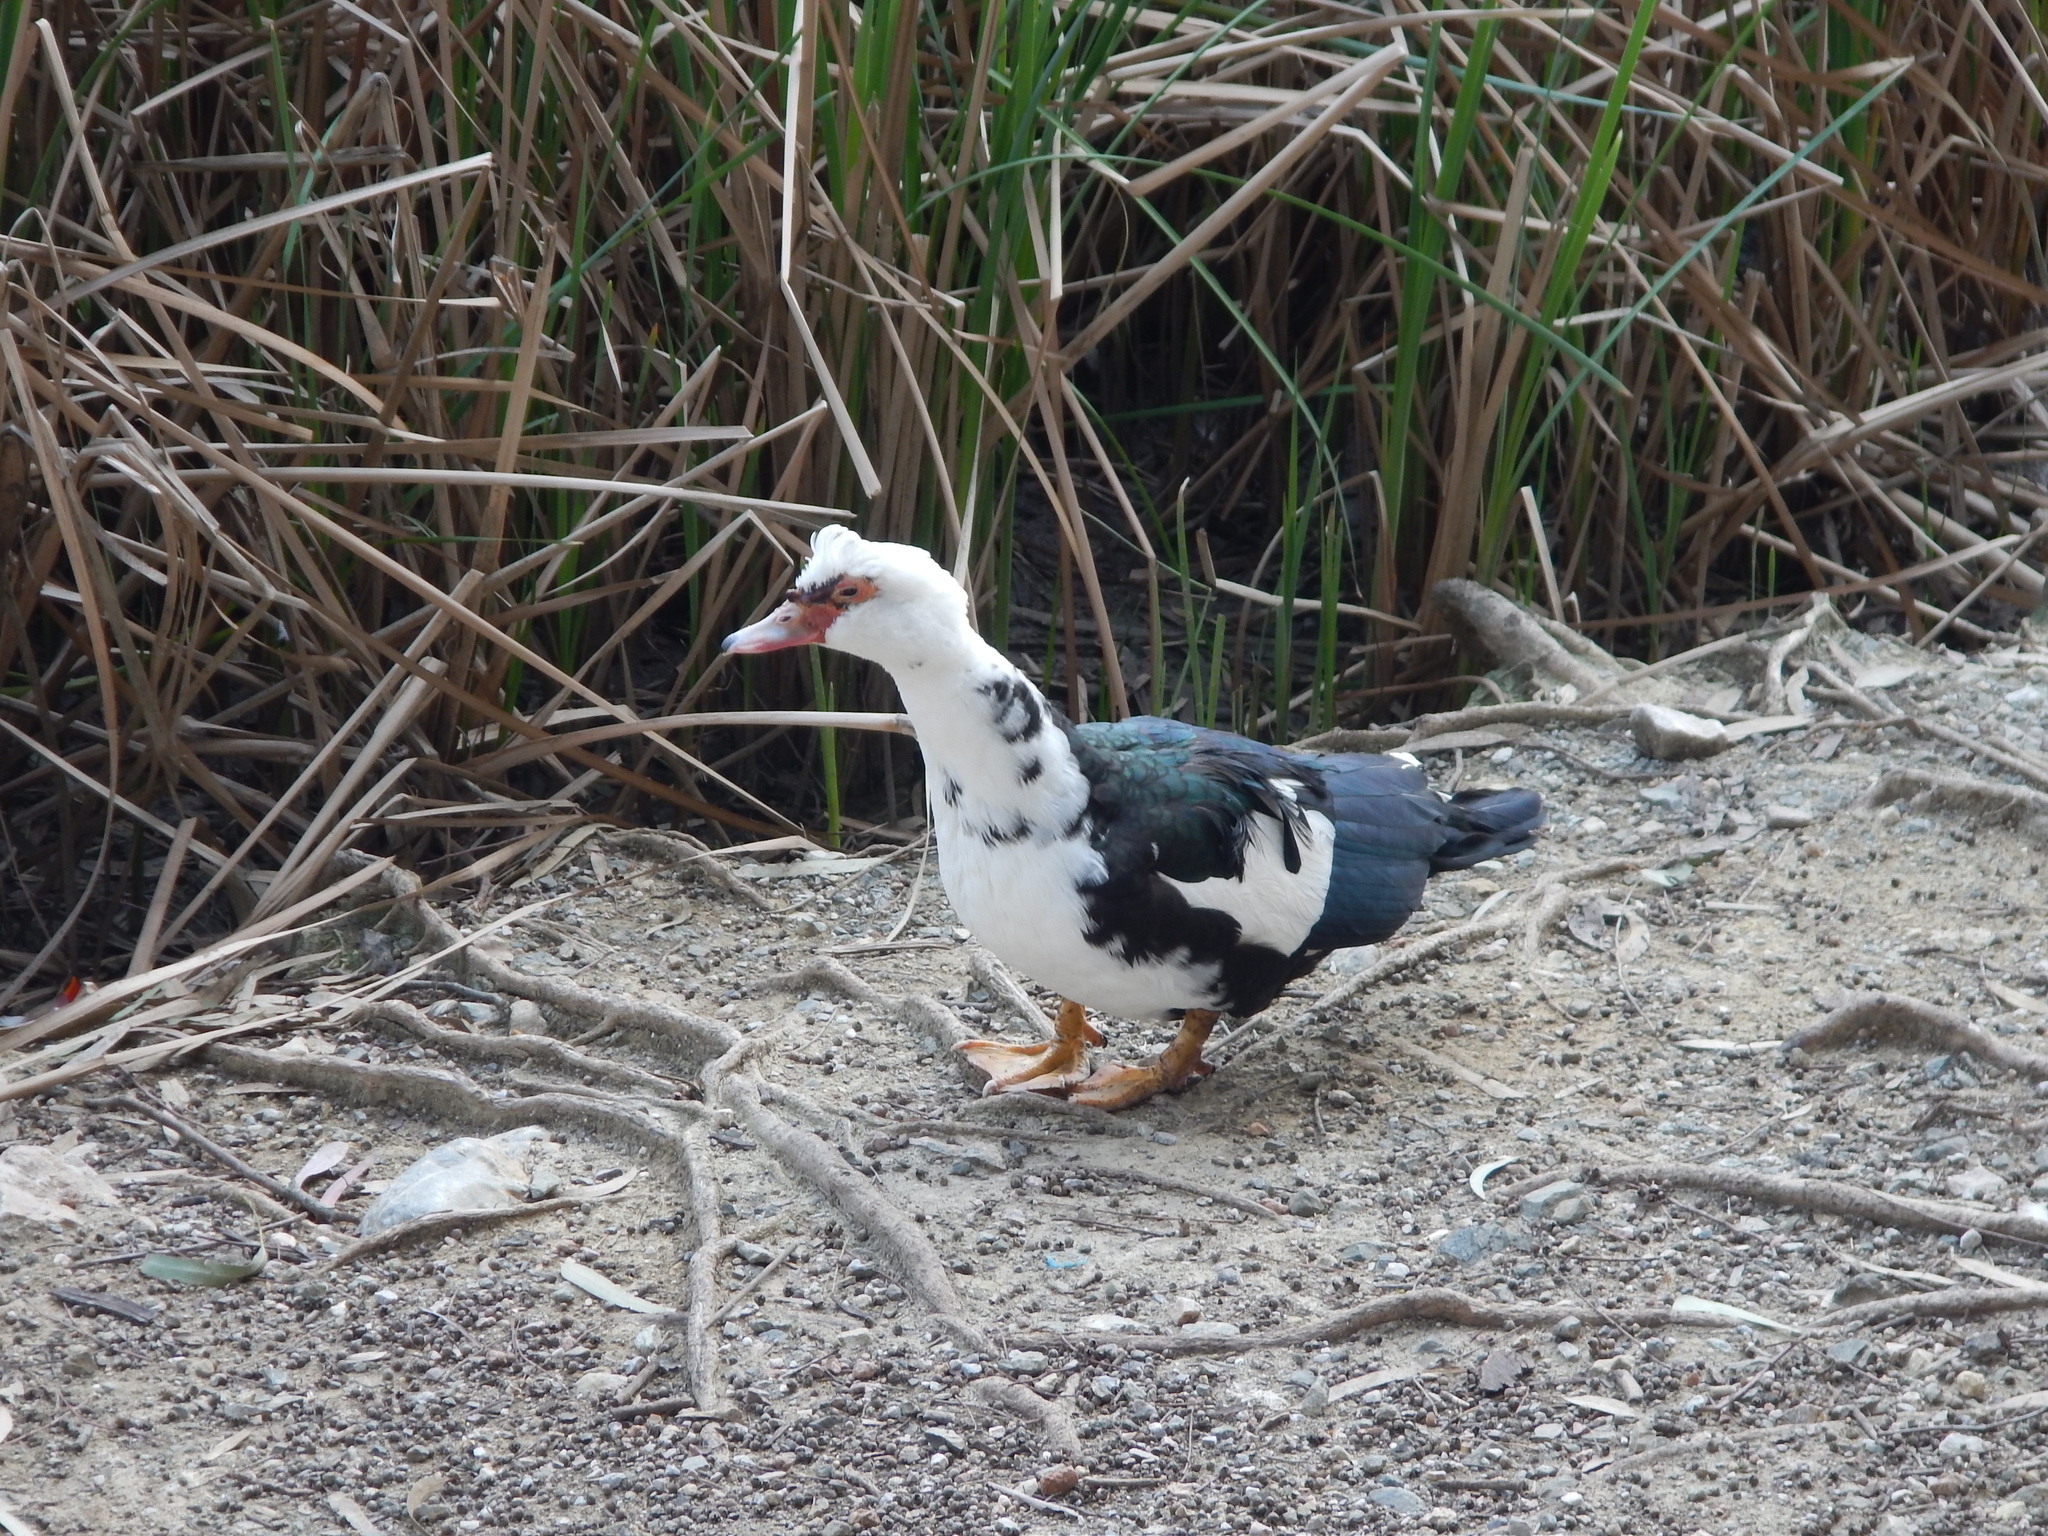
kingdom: Animalia
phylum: Chordata
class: Aves
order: Anseriformes
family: Anatidae
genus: Cairina
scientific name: Cairina moschata
